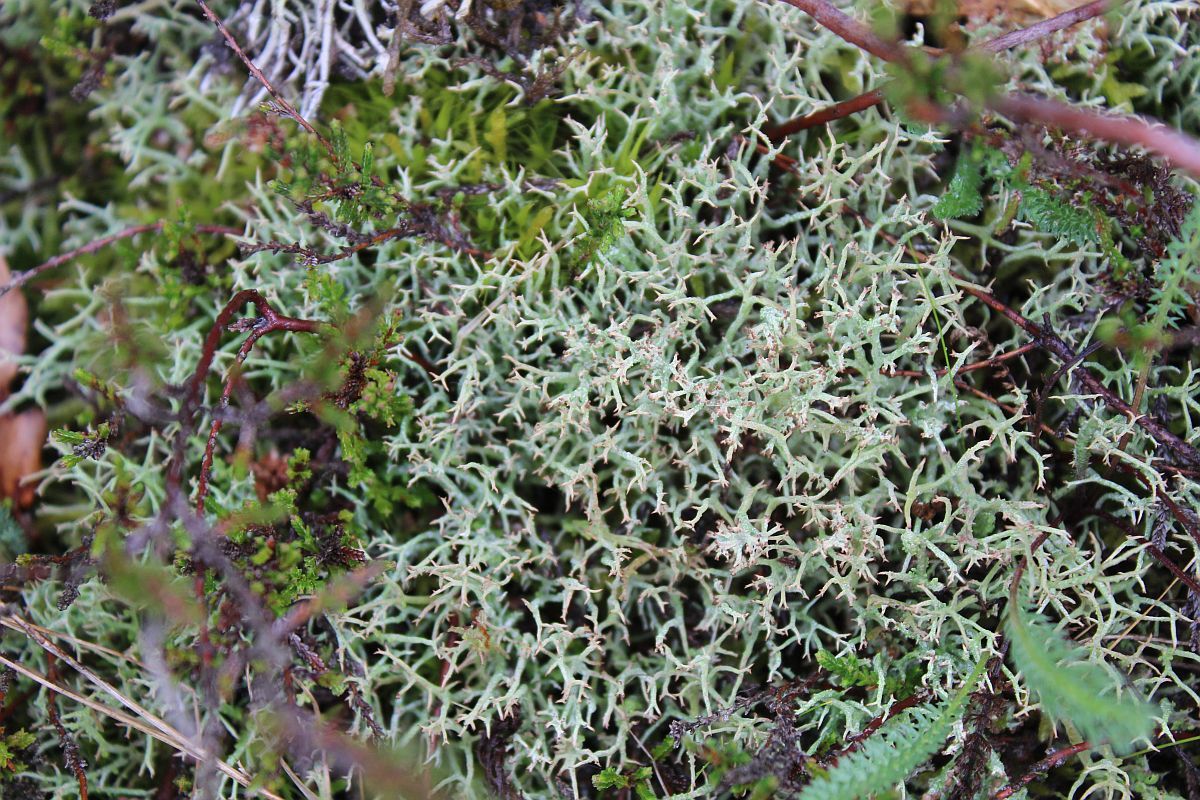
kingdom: Fungi
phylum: Ascomycota
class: Lecanoromycetes
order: Lecanorales
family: Cladoniaceae
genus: Cladonia
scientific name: Cladonia furcata
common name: Many-forked cladonia
